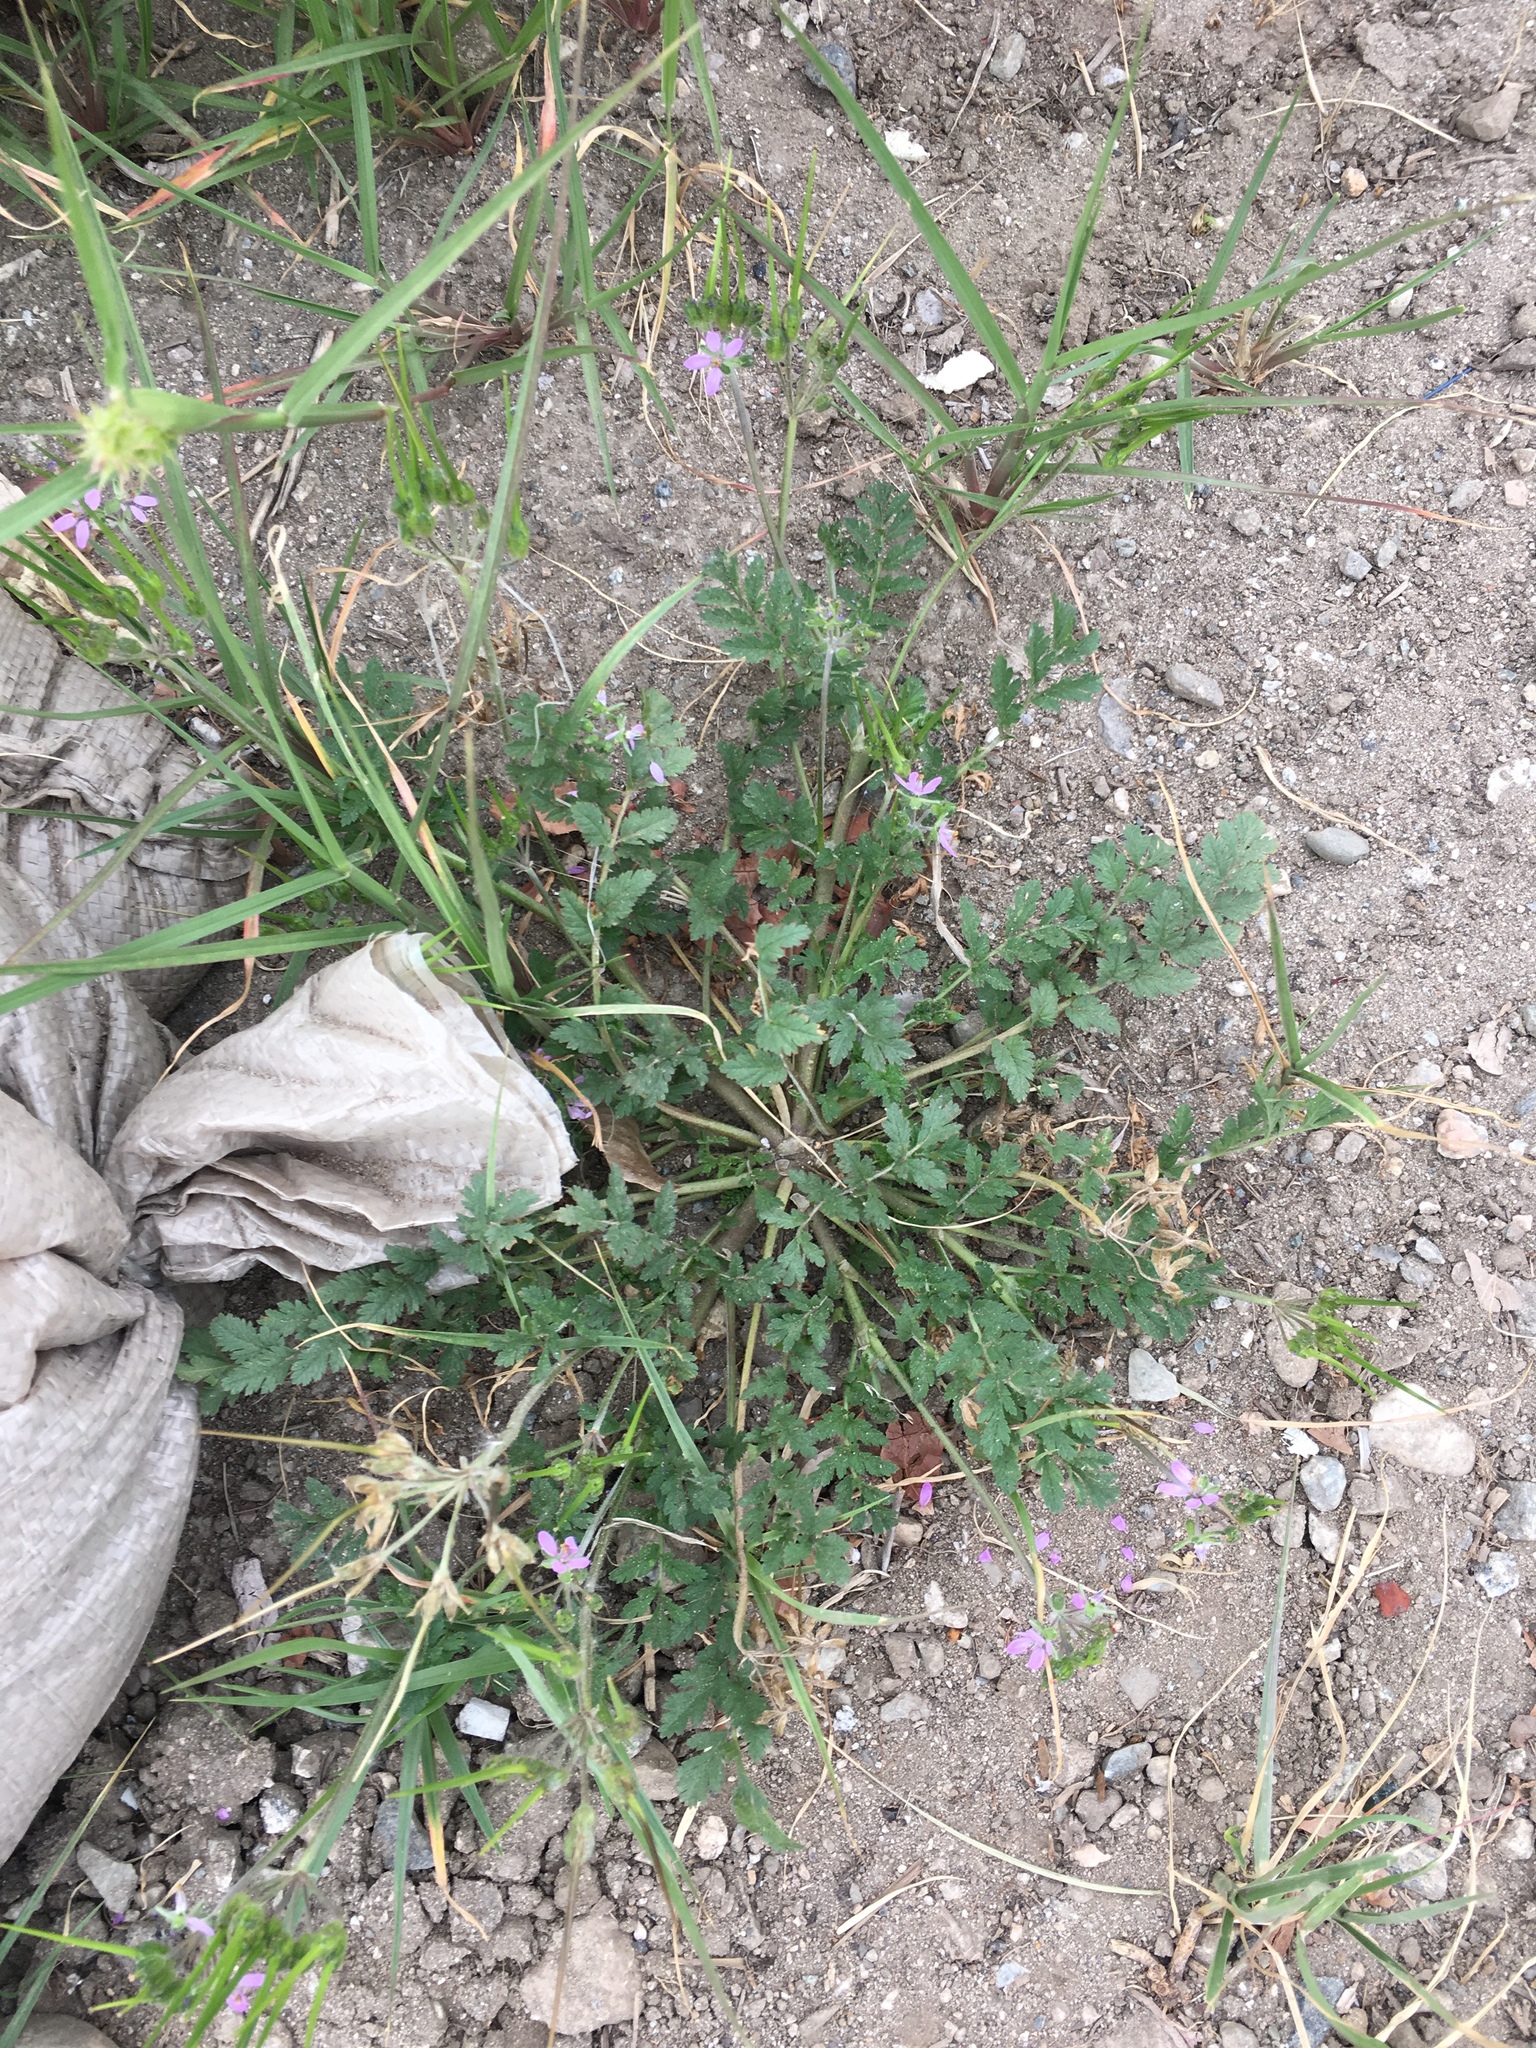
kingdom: Plantae
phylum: Tracheophyta
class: Magnoliopsida
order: Geraniales
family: Geraniaceae
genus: Erodium
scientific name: Erodium moschatum
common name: Musk stork's-bill
